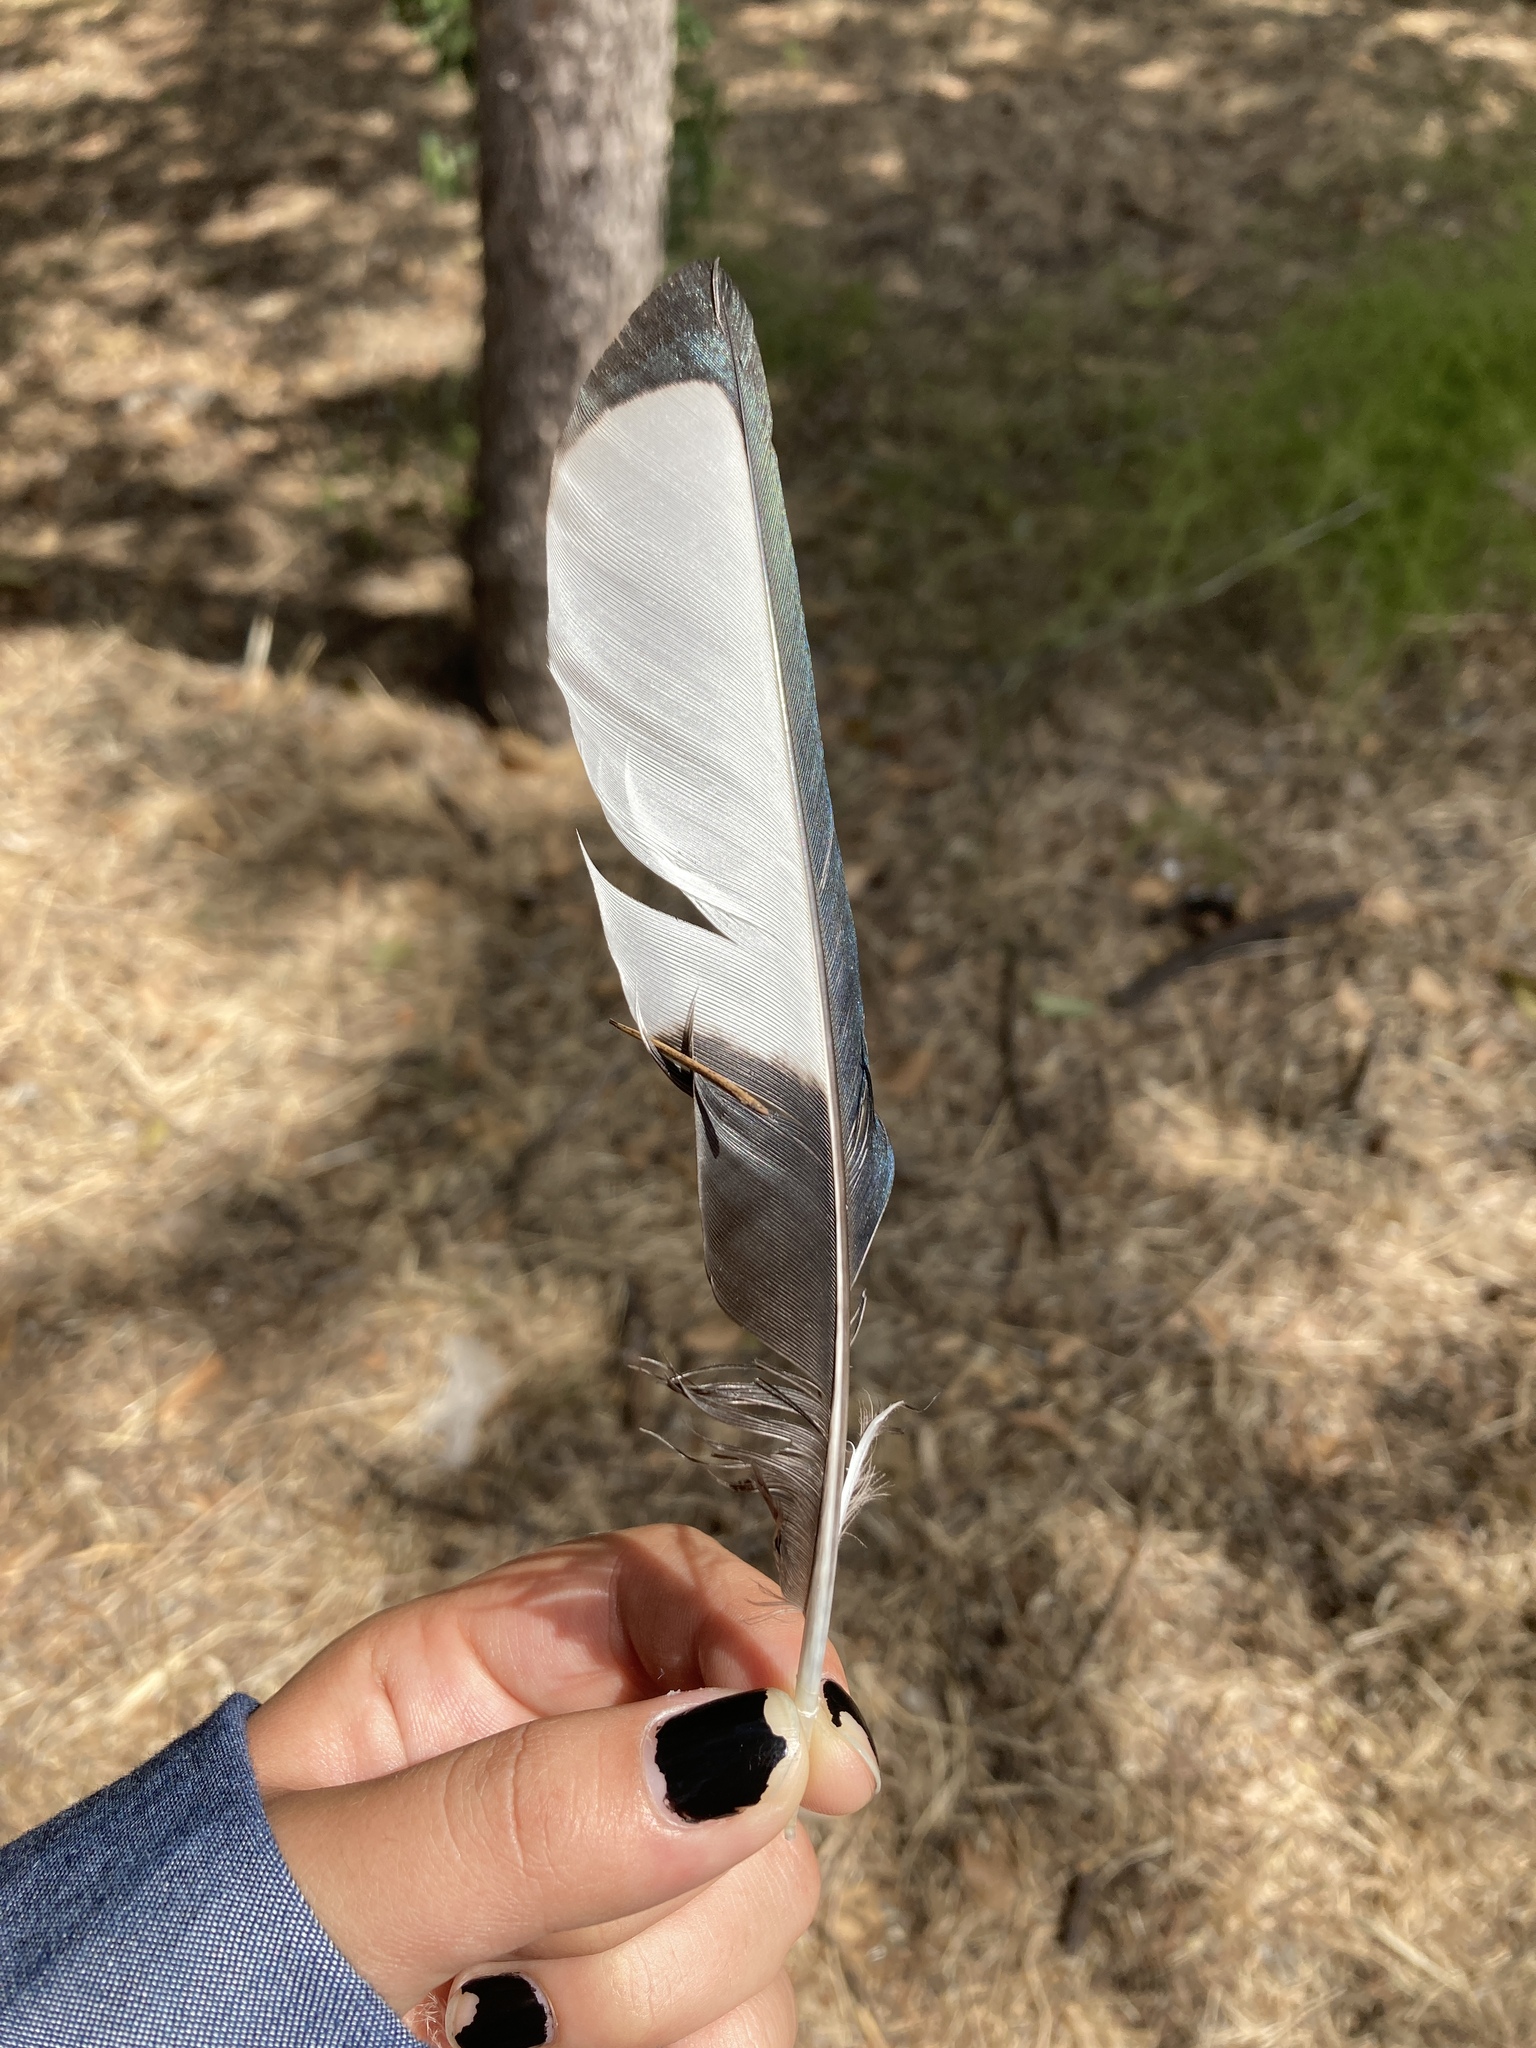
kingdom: Animalia
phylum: Chordata
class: Aves
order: Passeriformes
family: Corvidae
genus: Pica
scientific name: Pica pica
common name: Eurasian magpie
